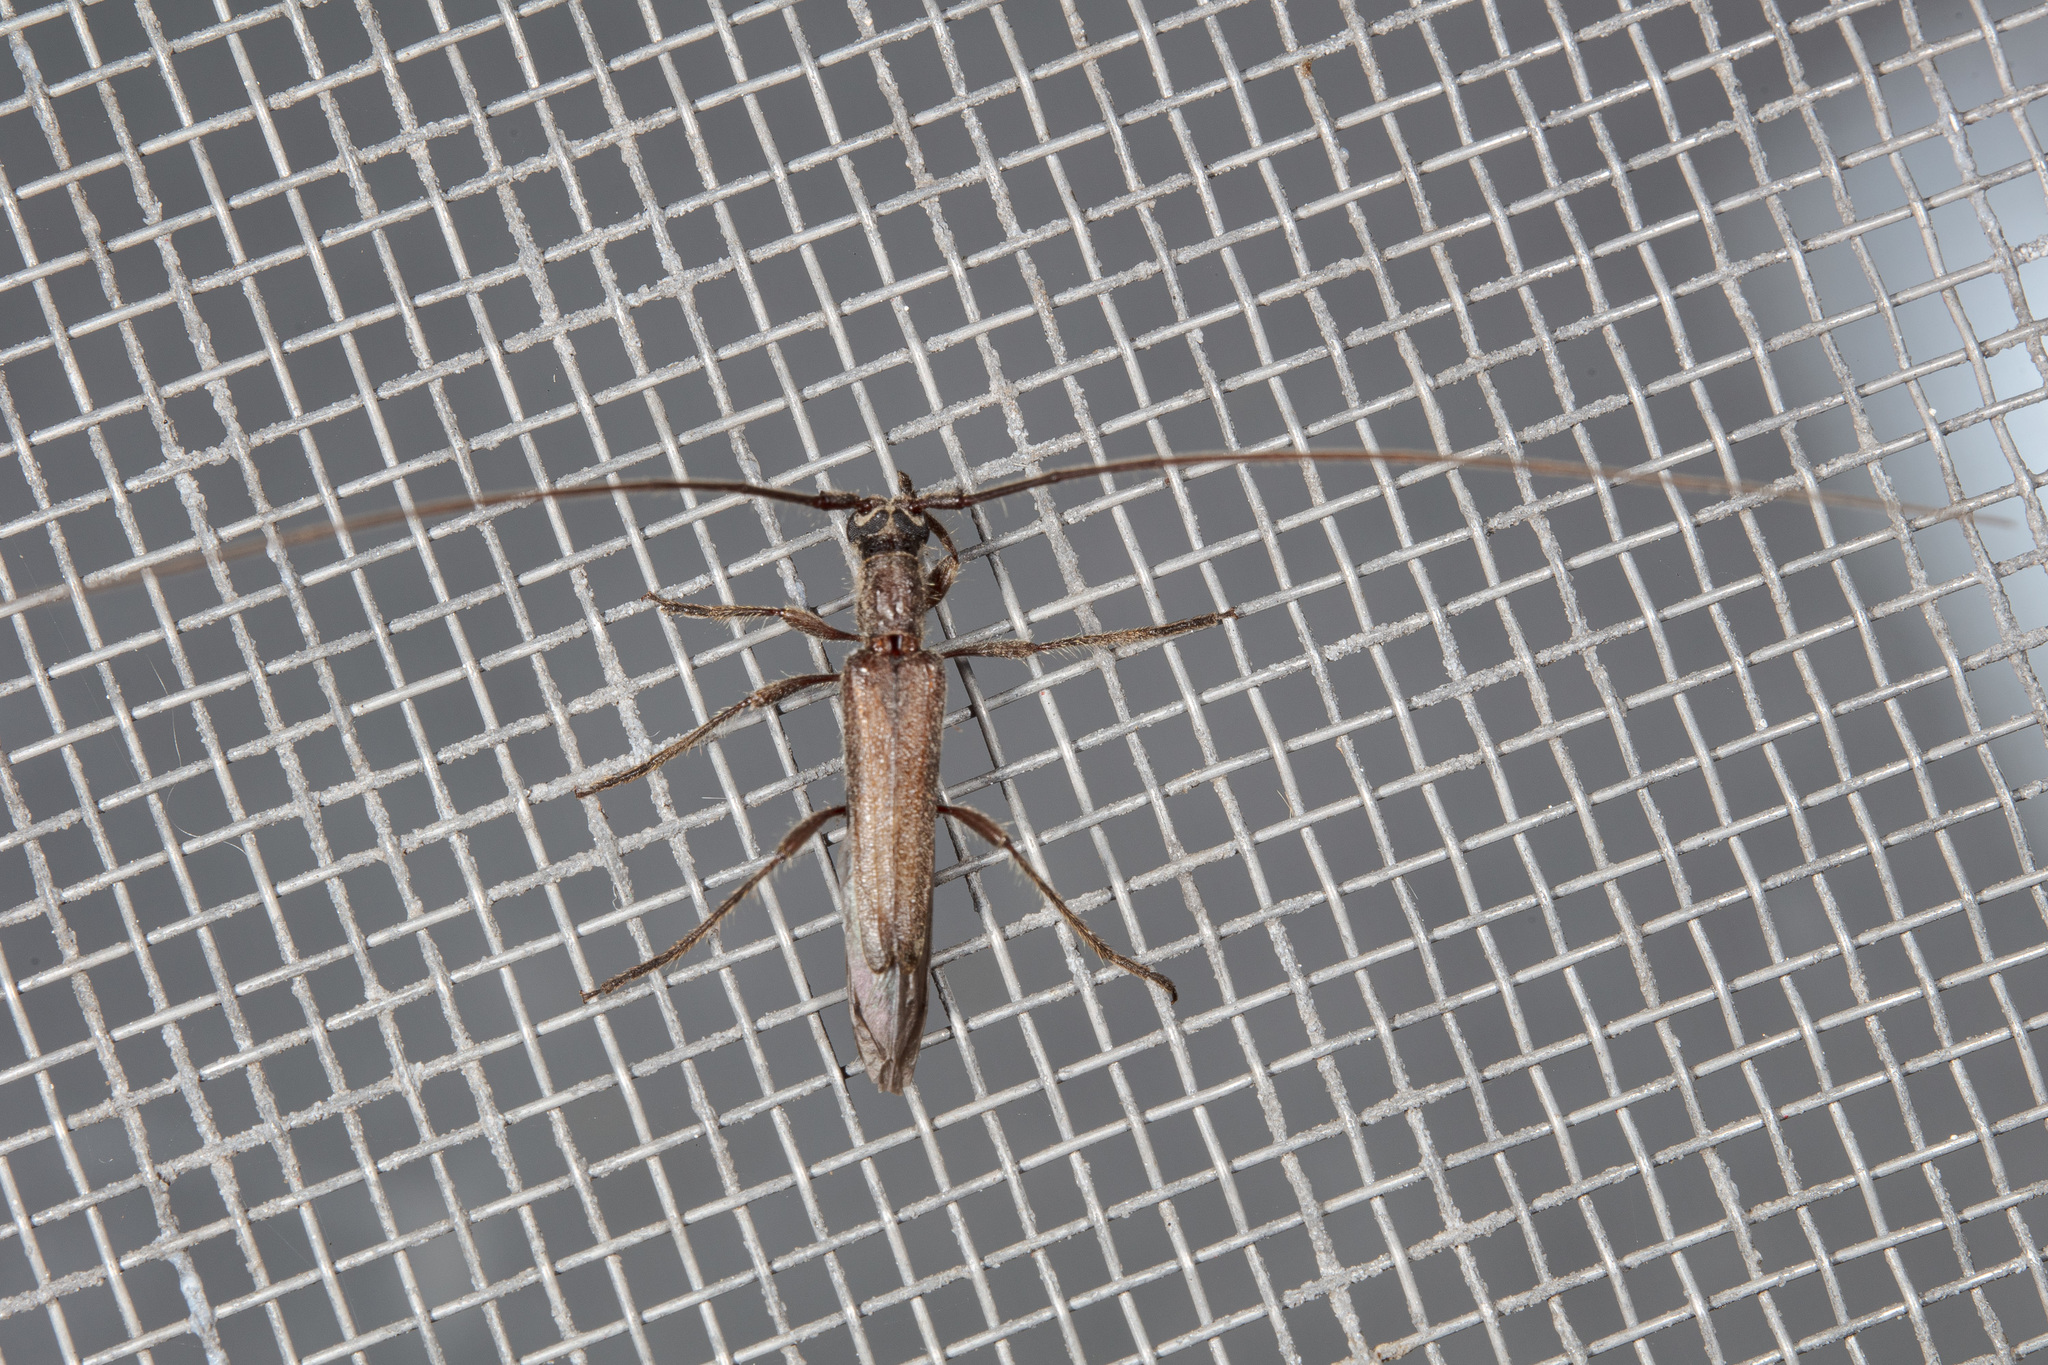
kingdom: Animalia
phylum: Arthropoda
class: Insecta
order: Coleoptera
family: Cerambycidae
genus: Styloxus
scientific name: Styloxus fulleri
